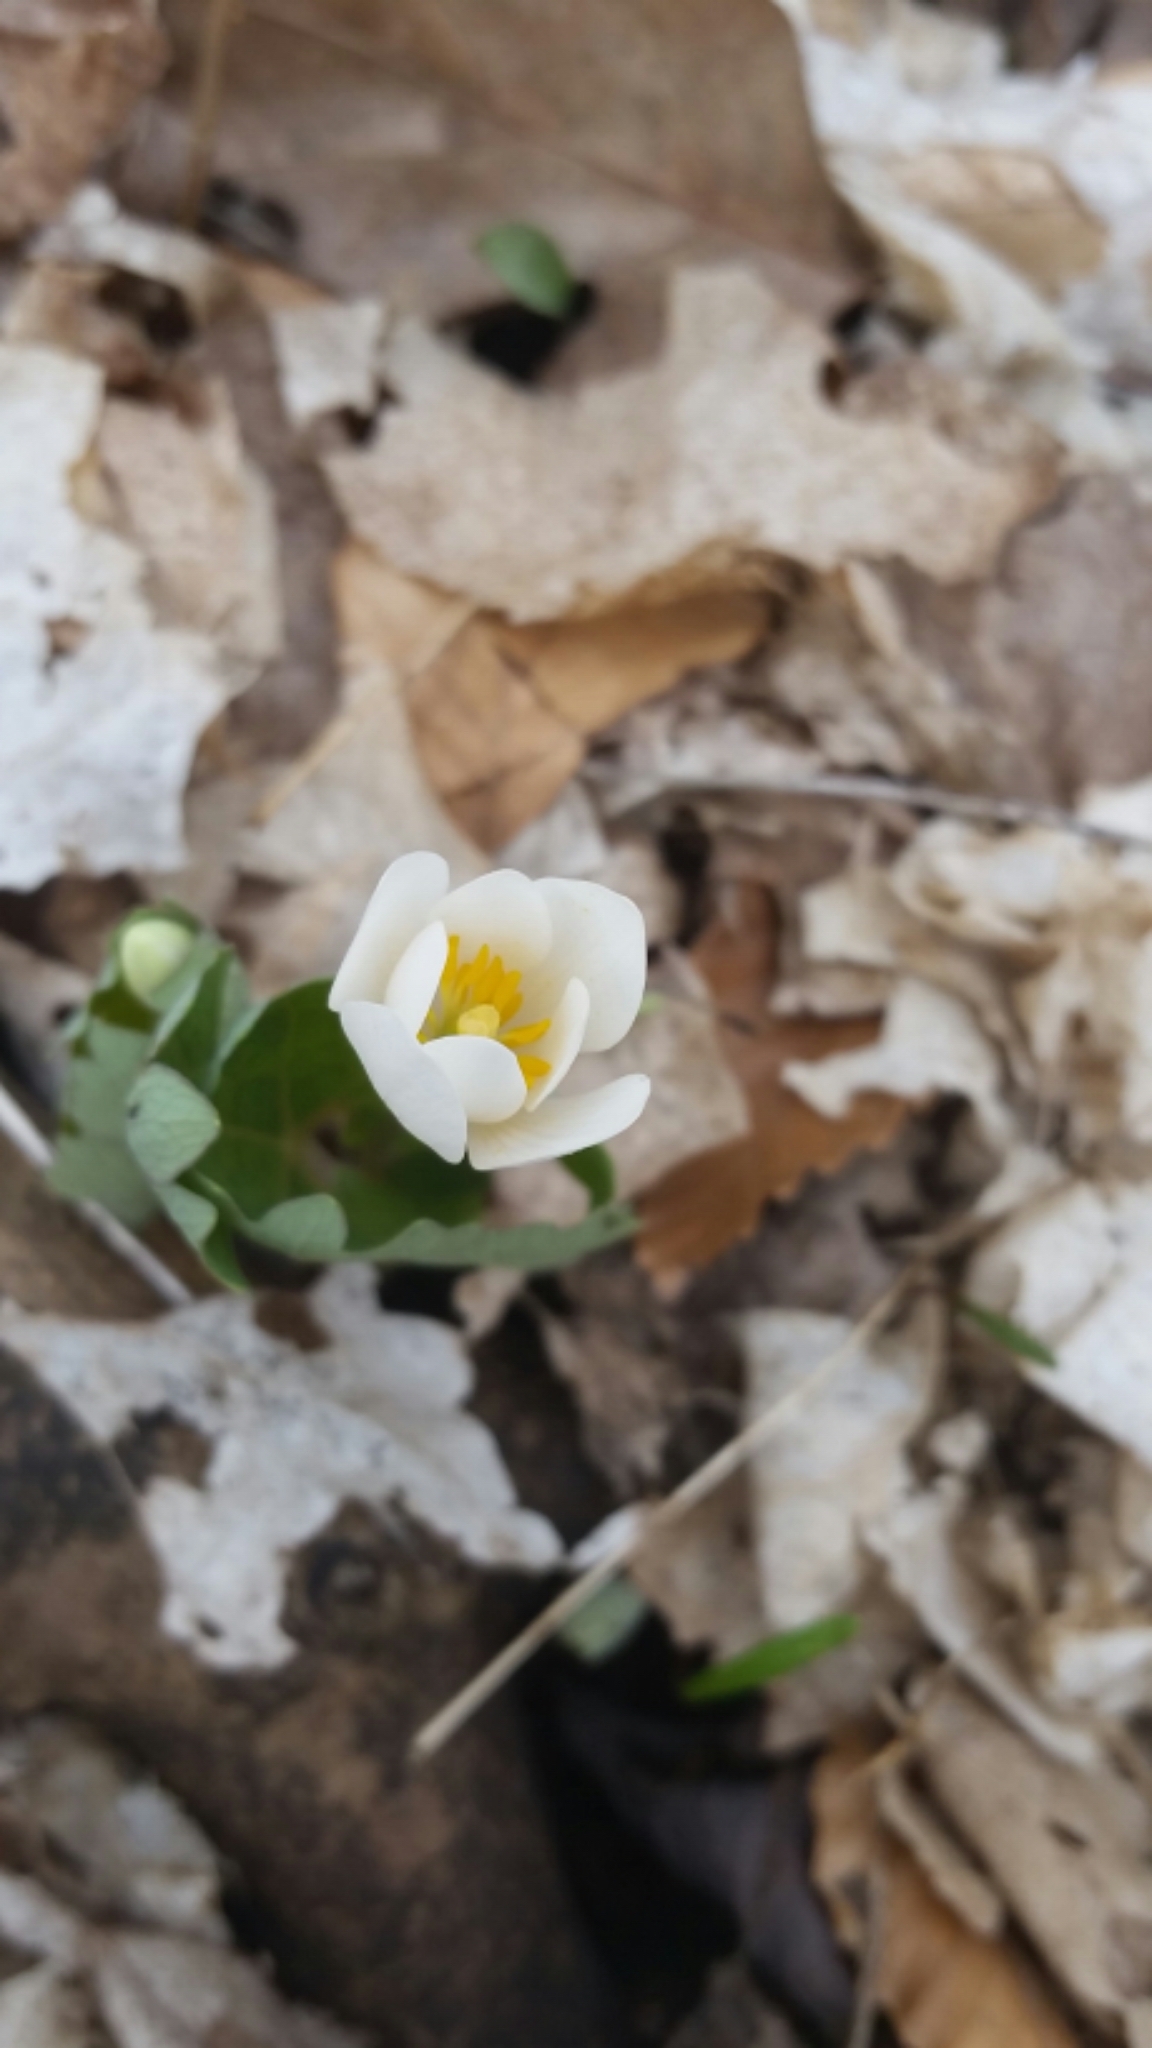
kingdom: Plantae
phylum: Tracheophyta
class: Magnoliopsida
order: Ranunculales
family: Papaveraceae
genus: Sanguinaria
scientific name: Sanguinaria canadensis
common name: Bloodroot
